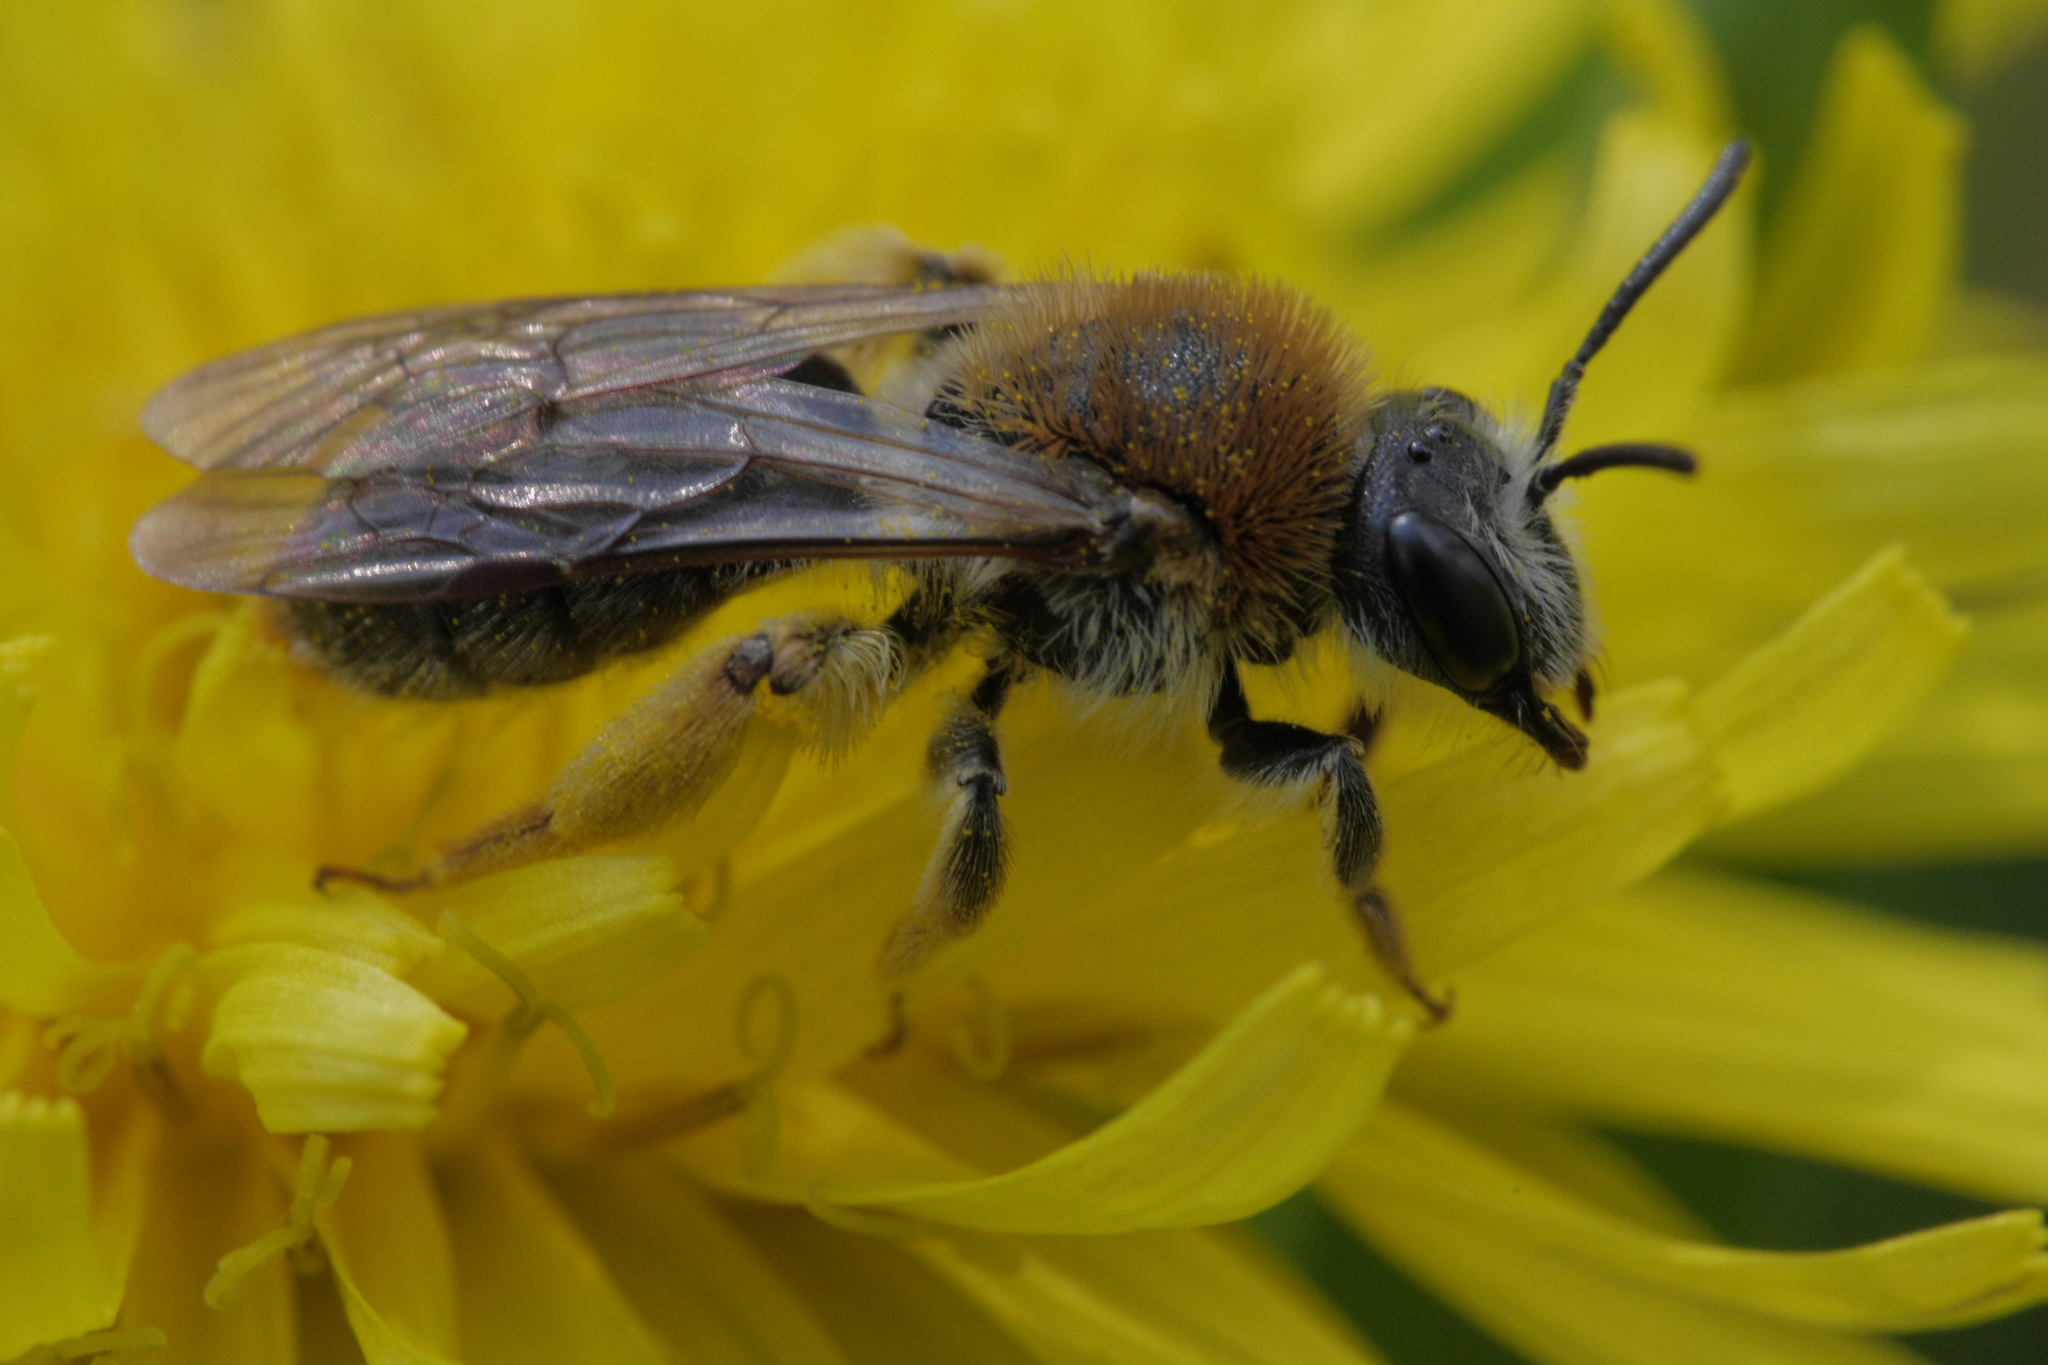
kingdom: Animalia
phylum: Arthropoda
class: Insecta
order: Hymenoptera
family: Andrenidae
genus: Andrena
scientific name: Andrena haemorrhoa
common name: Early mining bee
